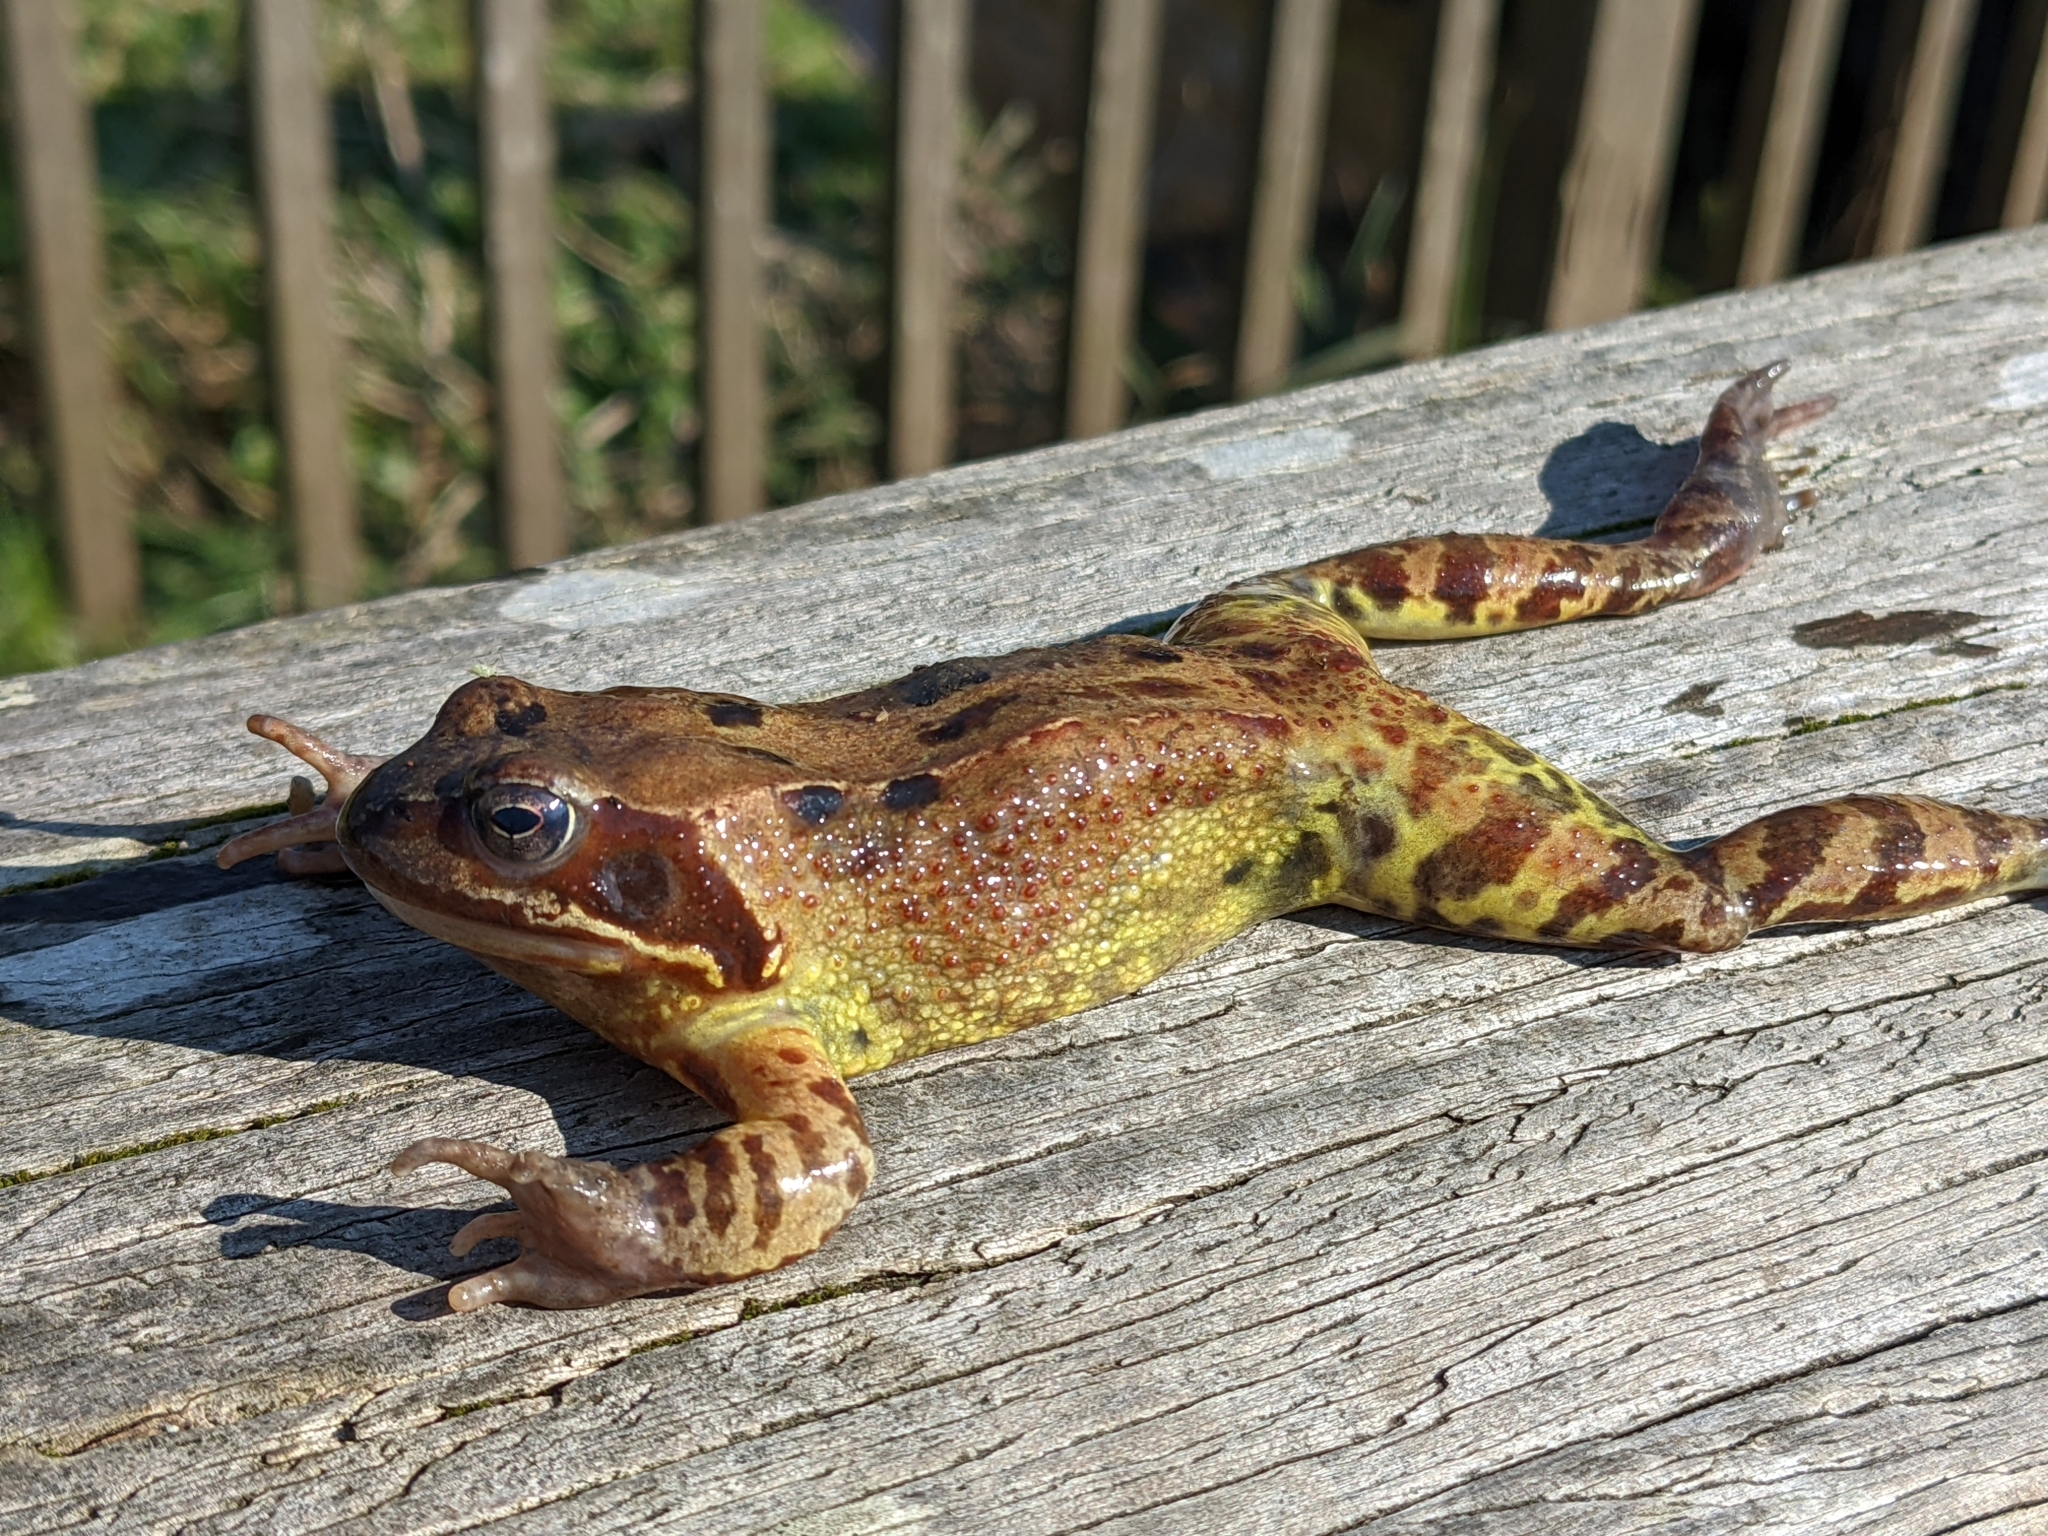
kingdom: Animalia
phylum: Chordata
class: Amphibia
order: Anura
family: Ranidae
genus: Rana
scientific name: Rana temporaria
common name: Common frog
